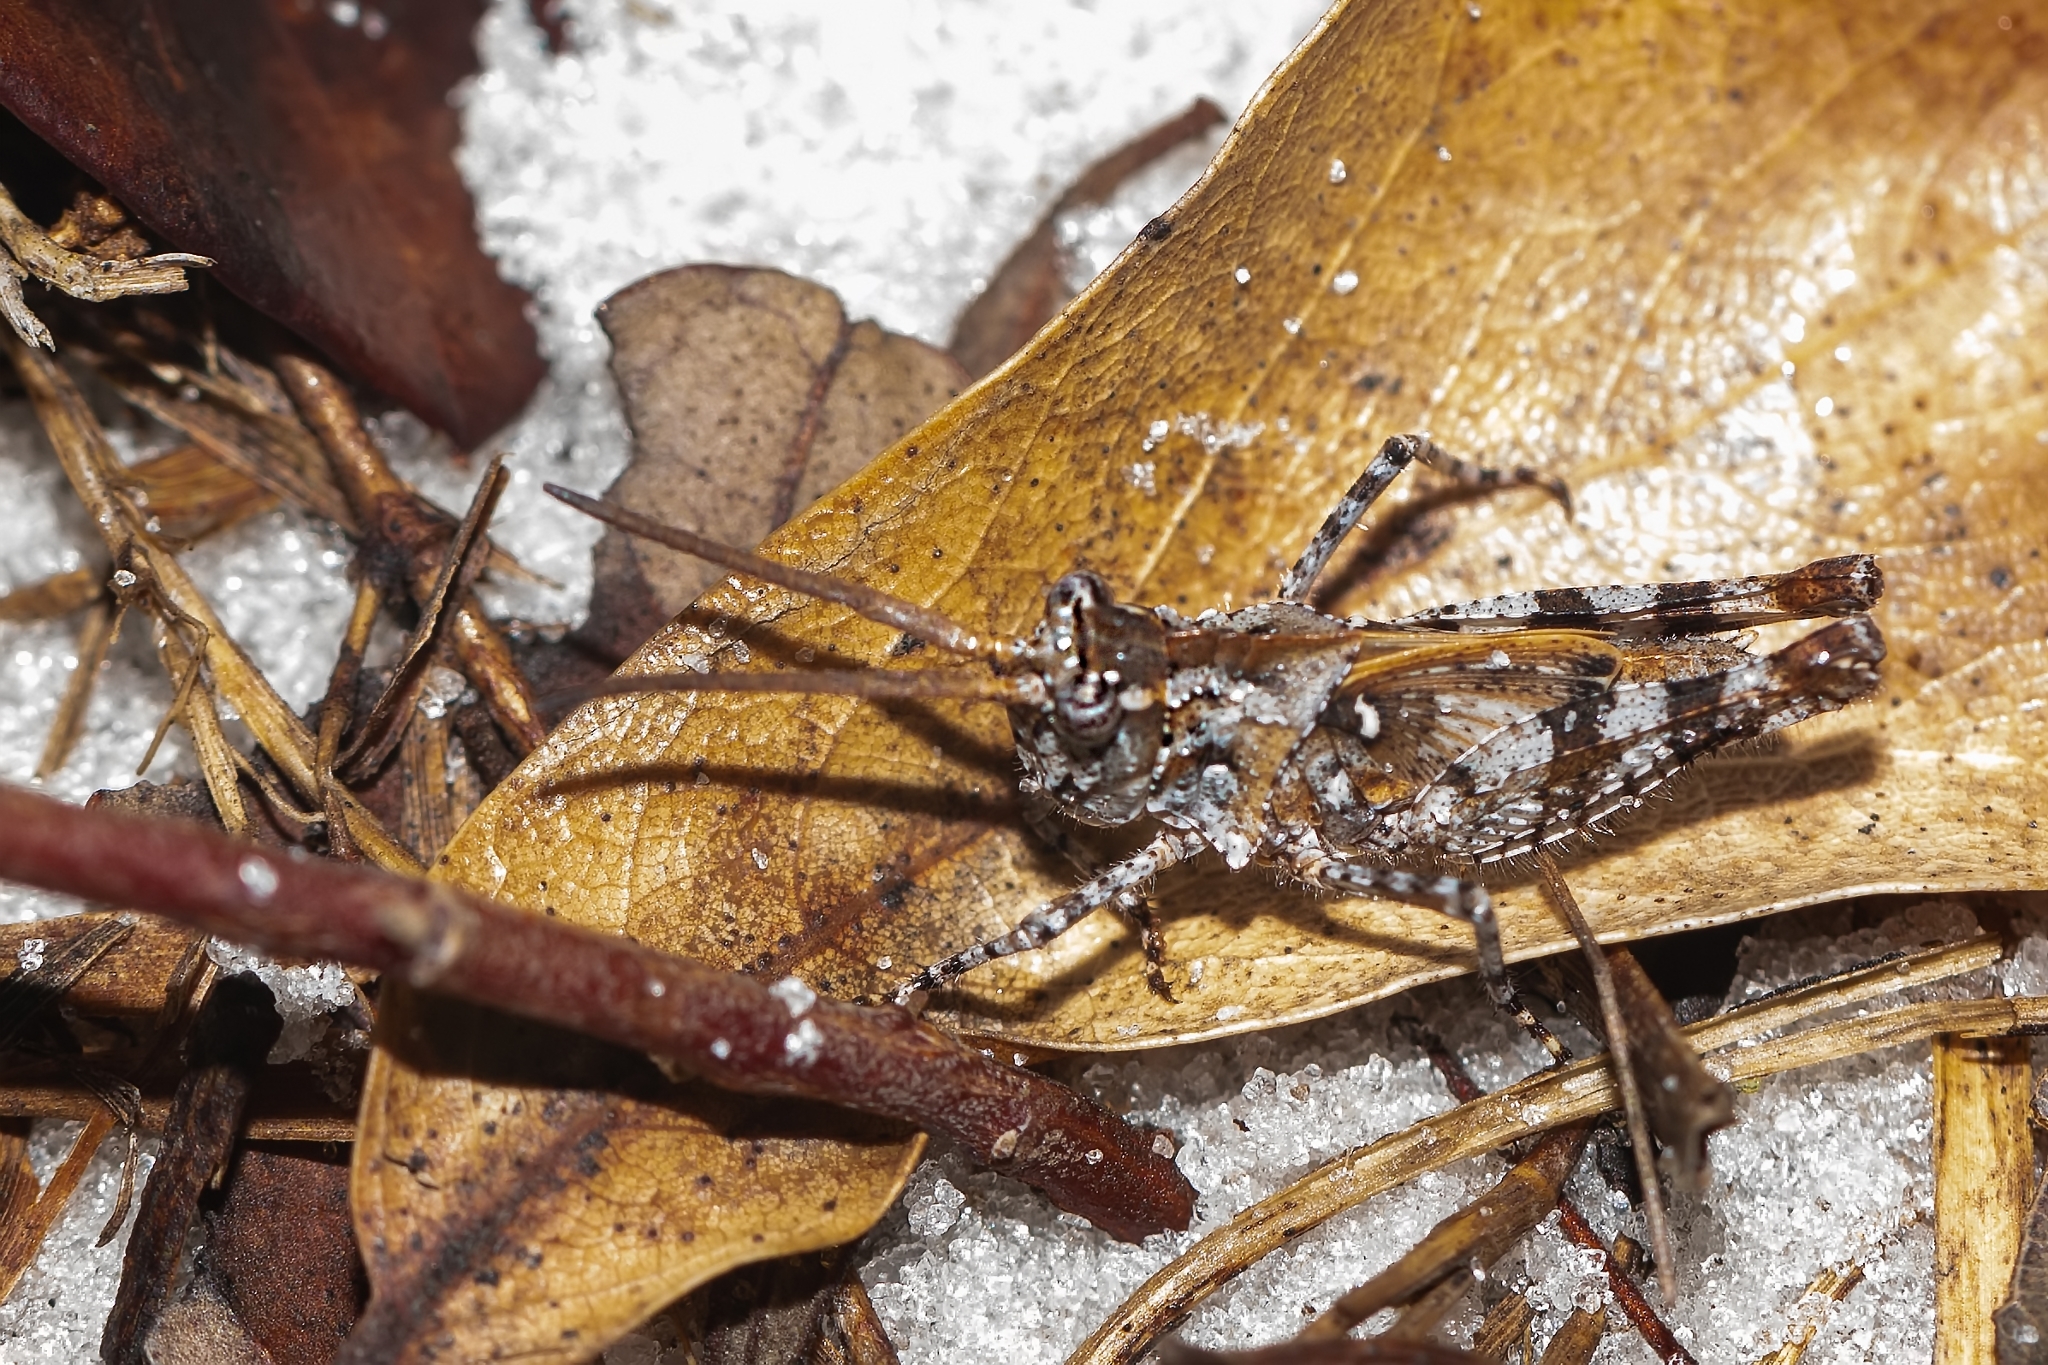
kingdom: Animalia
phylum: Arthropoda
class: Insecta
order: Orthoptera
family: Acrididae
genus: Psinidia
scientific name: Psinidia fenestralis
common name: Long-horned locust
